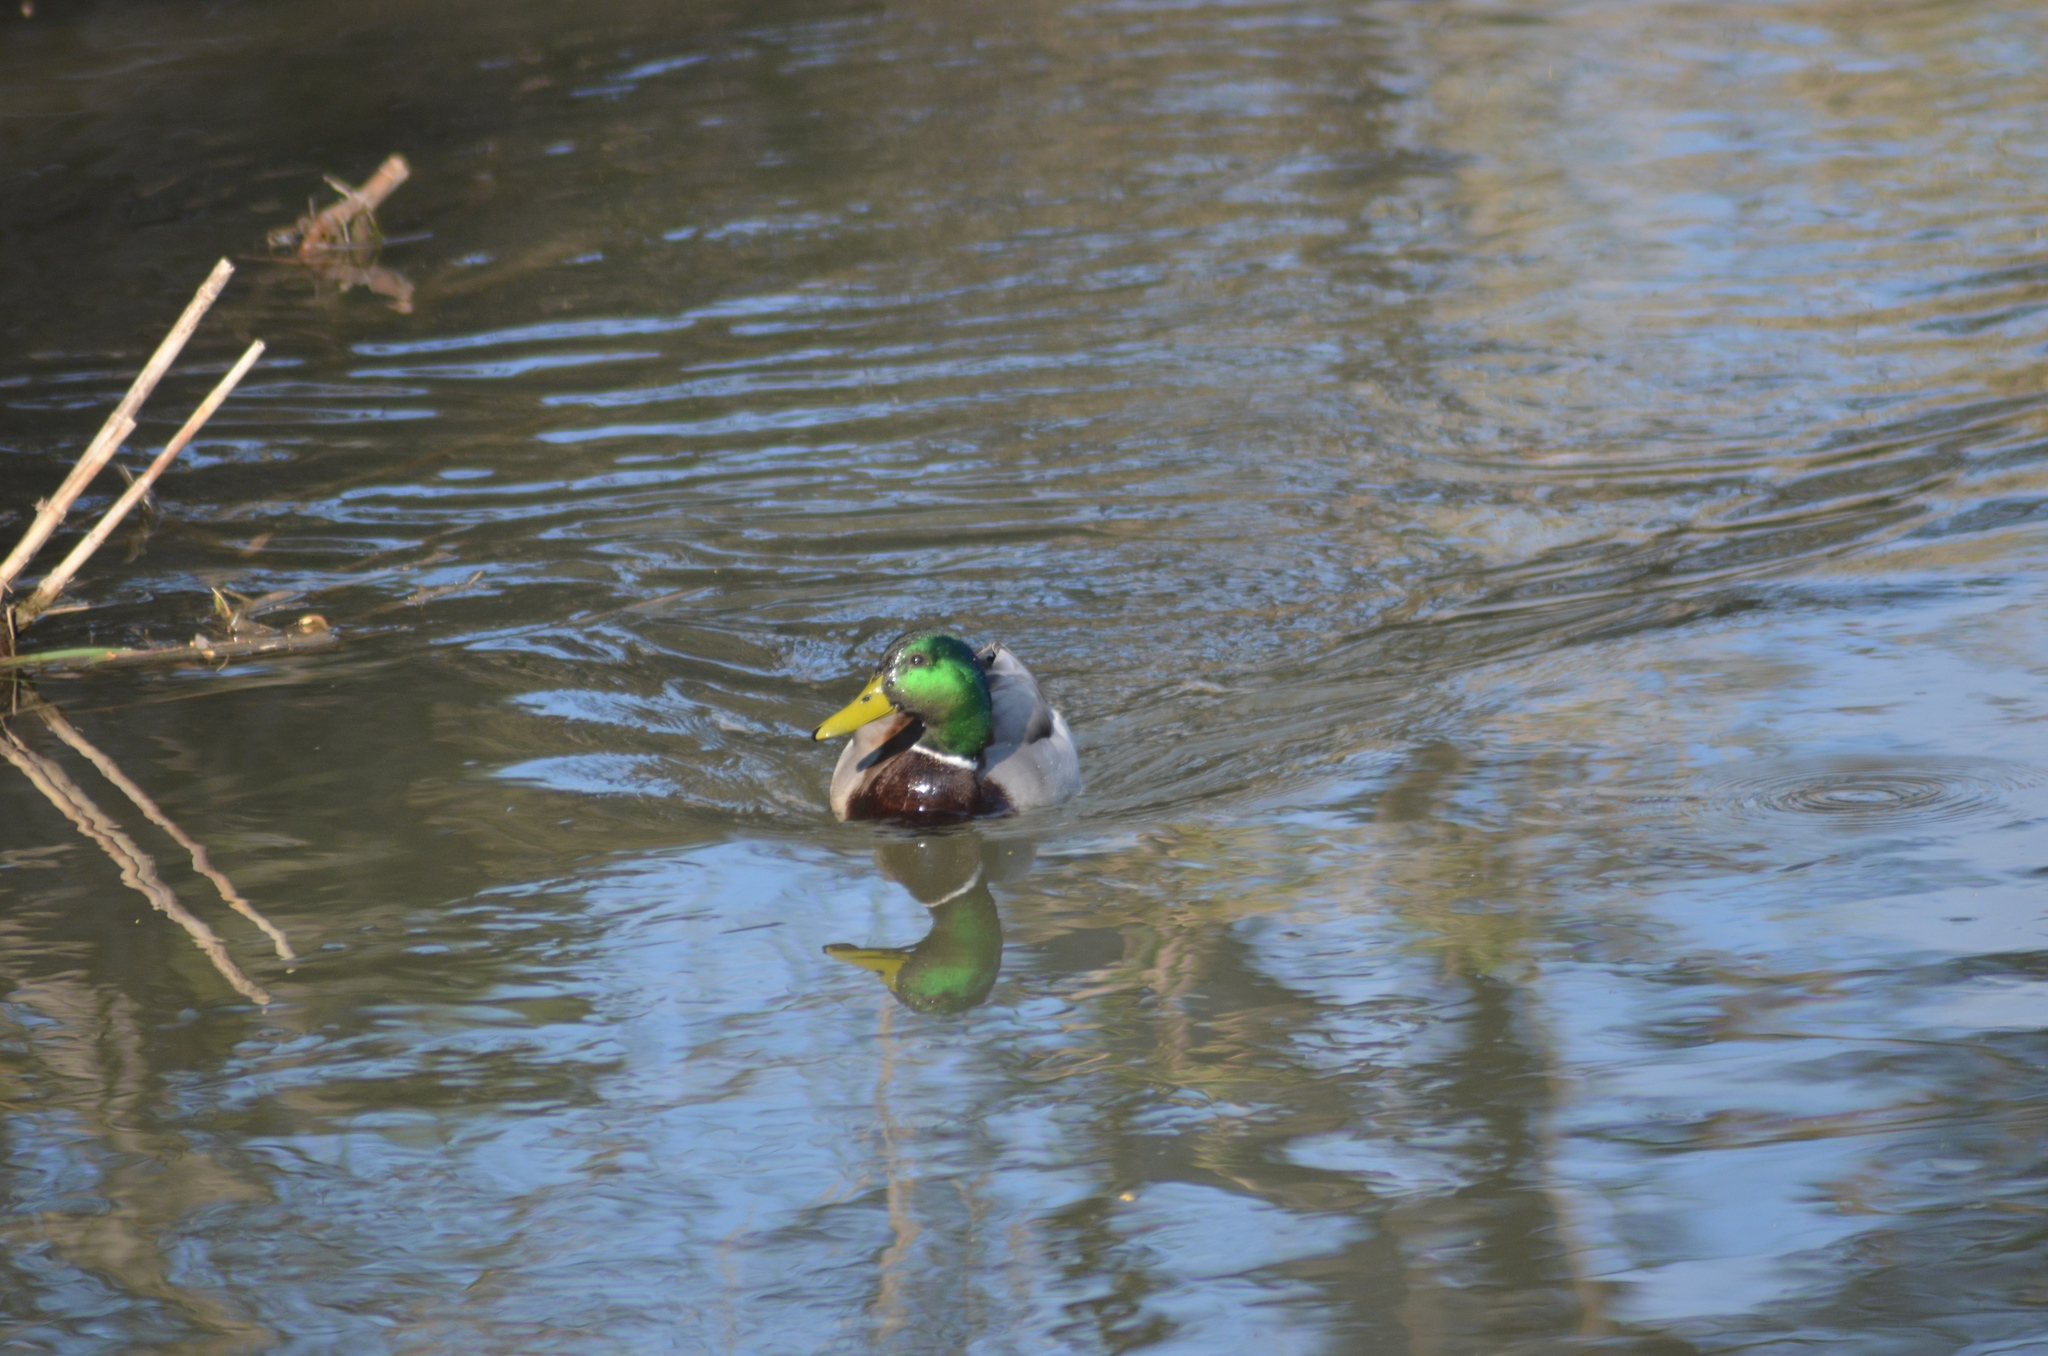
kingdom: Animalia
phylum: Chordata
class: Aves
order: Anseriformes
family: Anatidae
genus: Anas
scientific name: Anas platyrhynchos
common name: Mallard
